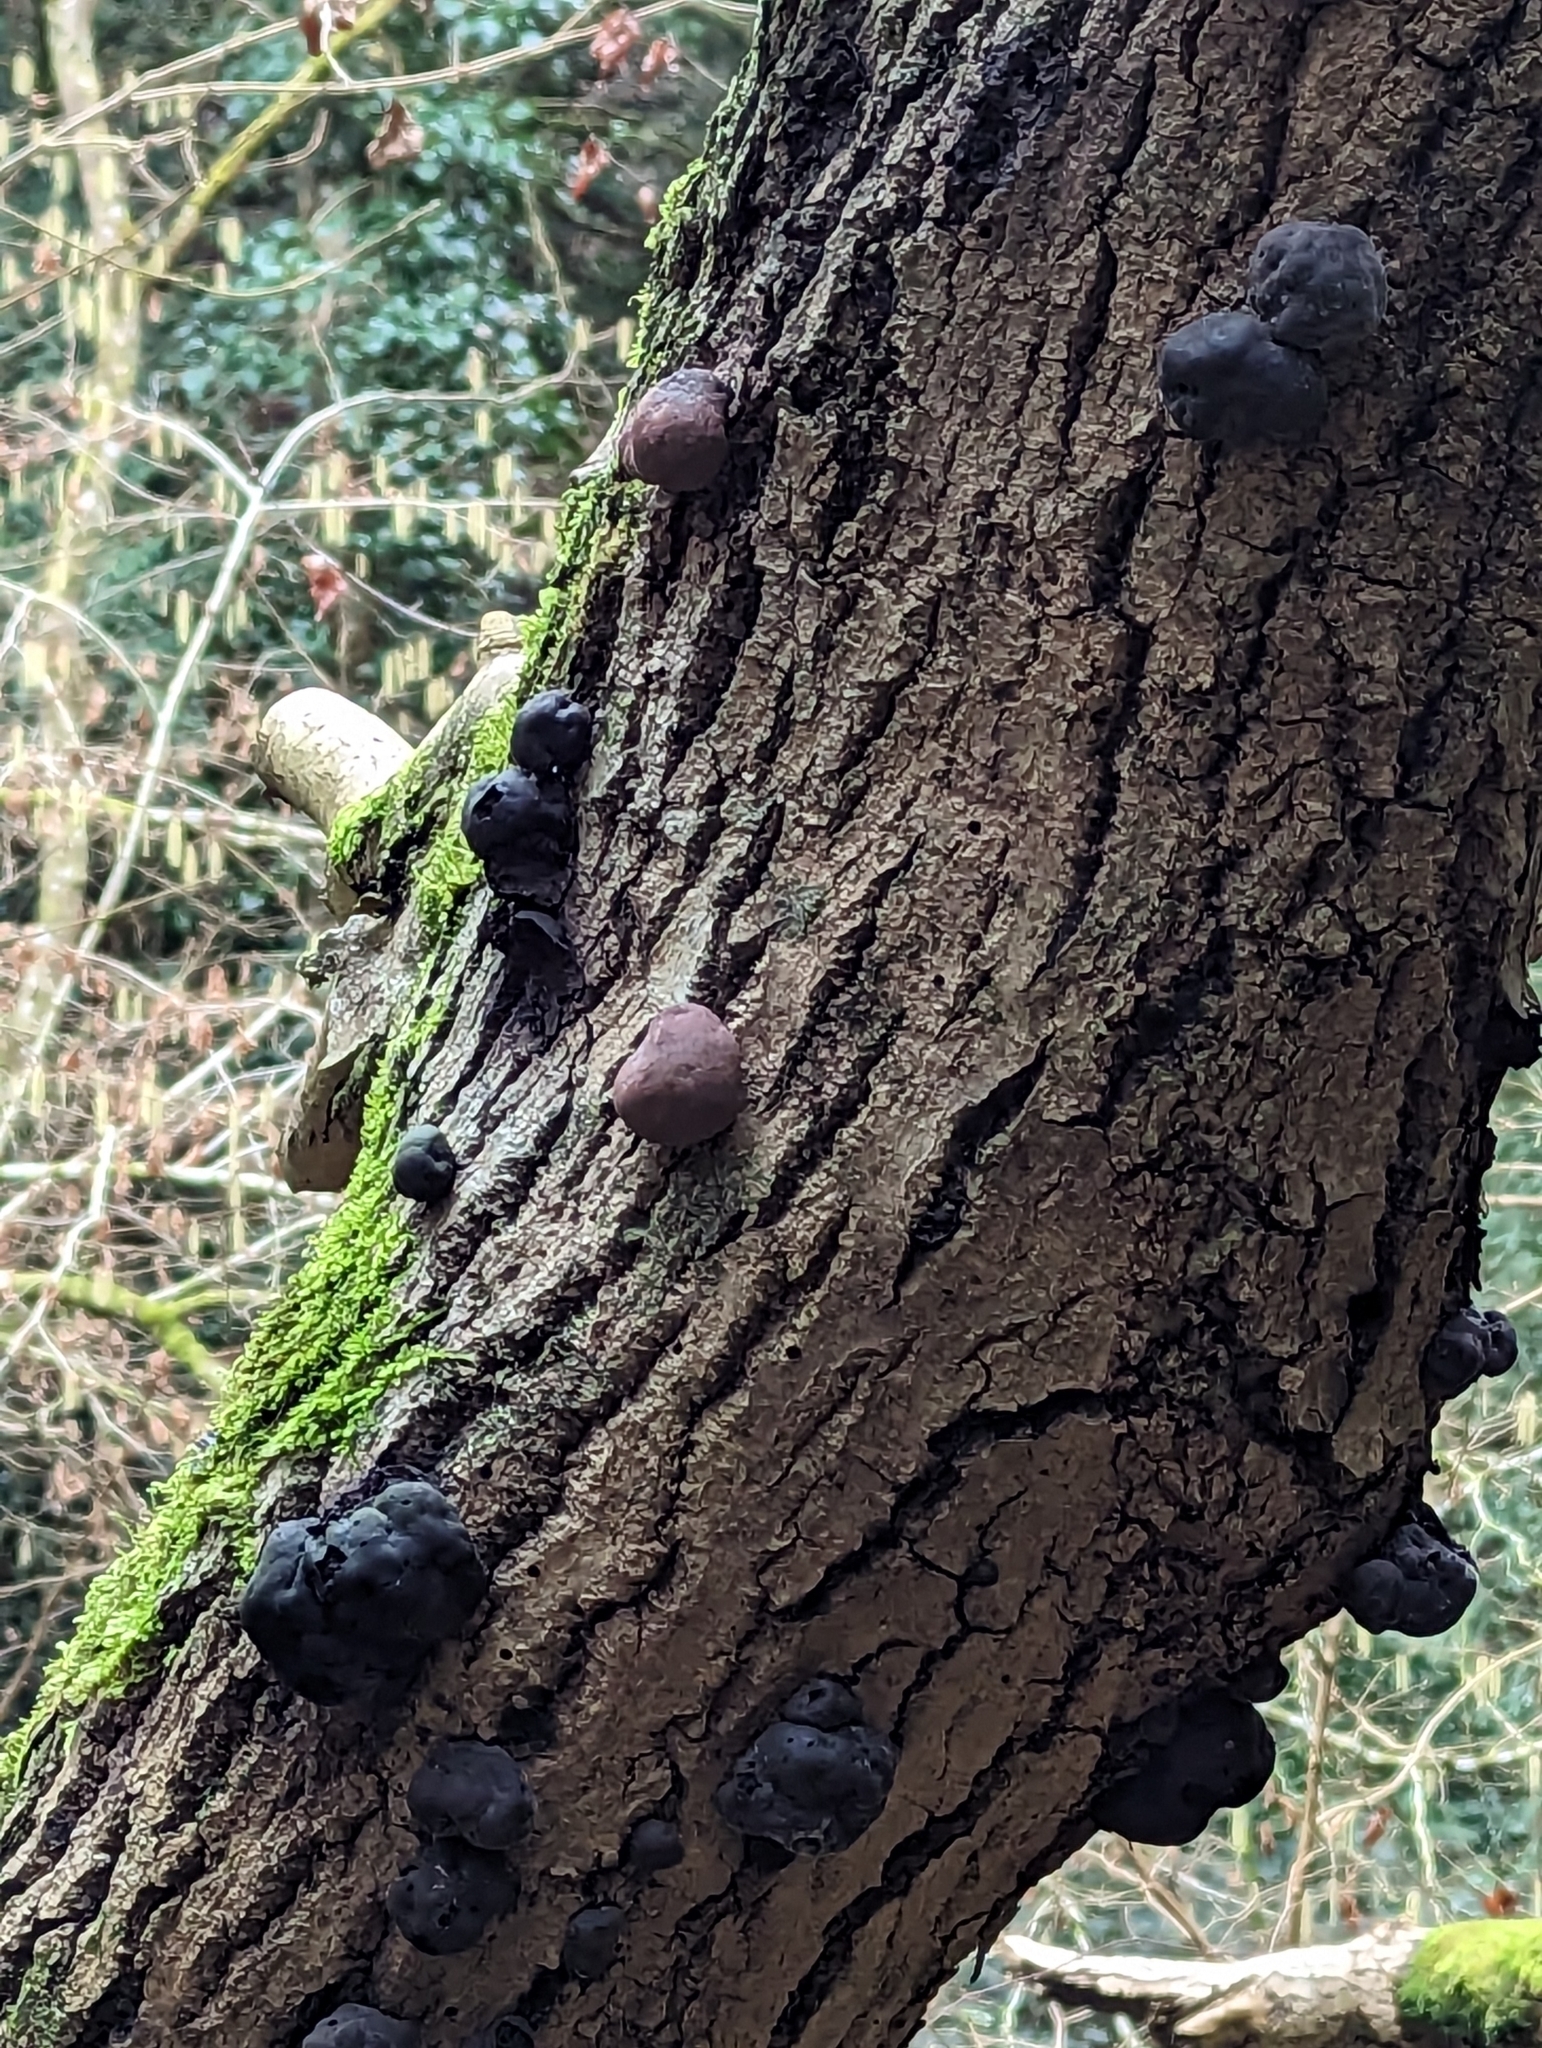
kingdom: Fungi
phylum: Ascomycota
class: Sordariomycetes
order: Xylariales
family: Hypoxylaceae
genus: Daldinia
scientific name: Daldinia concentrica
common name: Cramp balls
